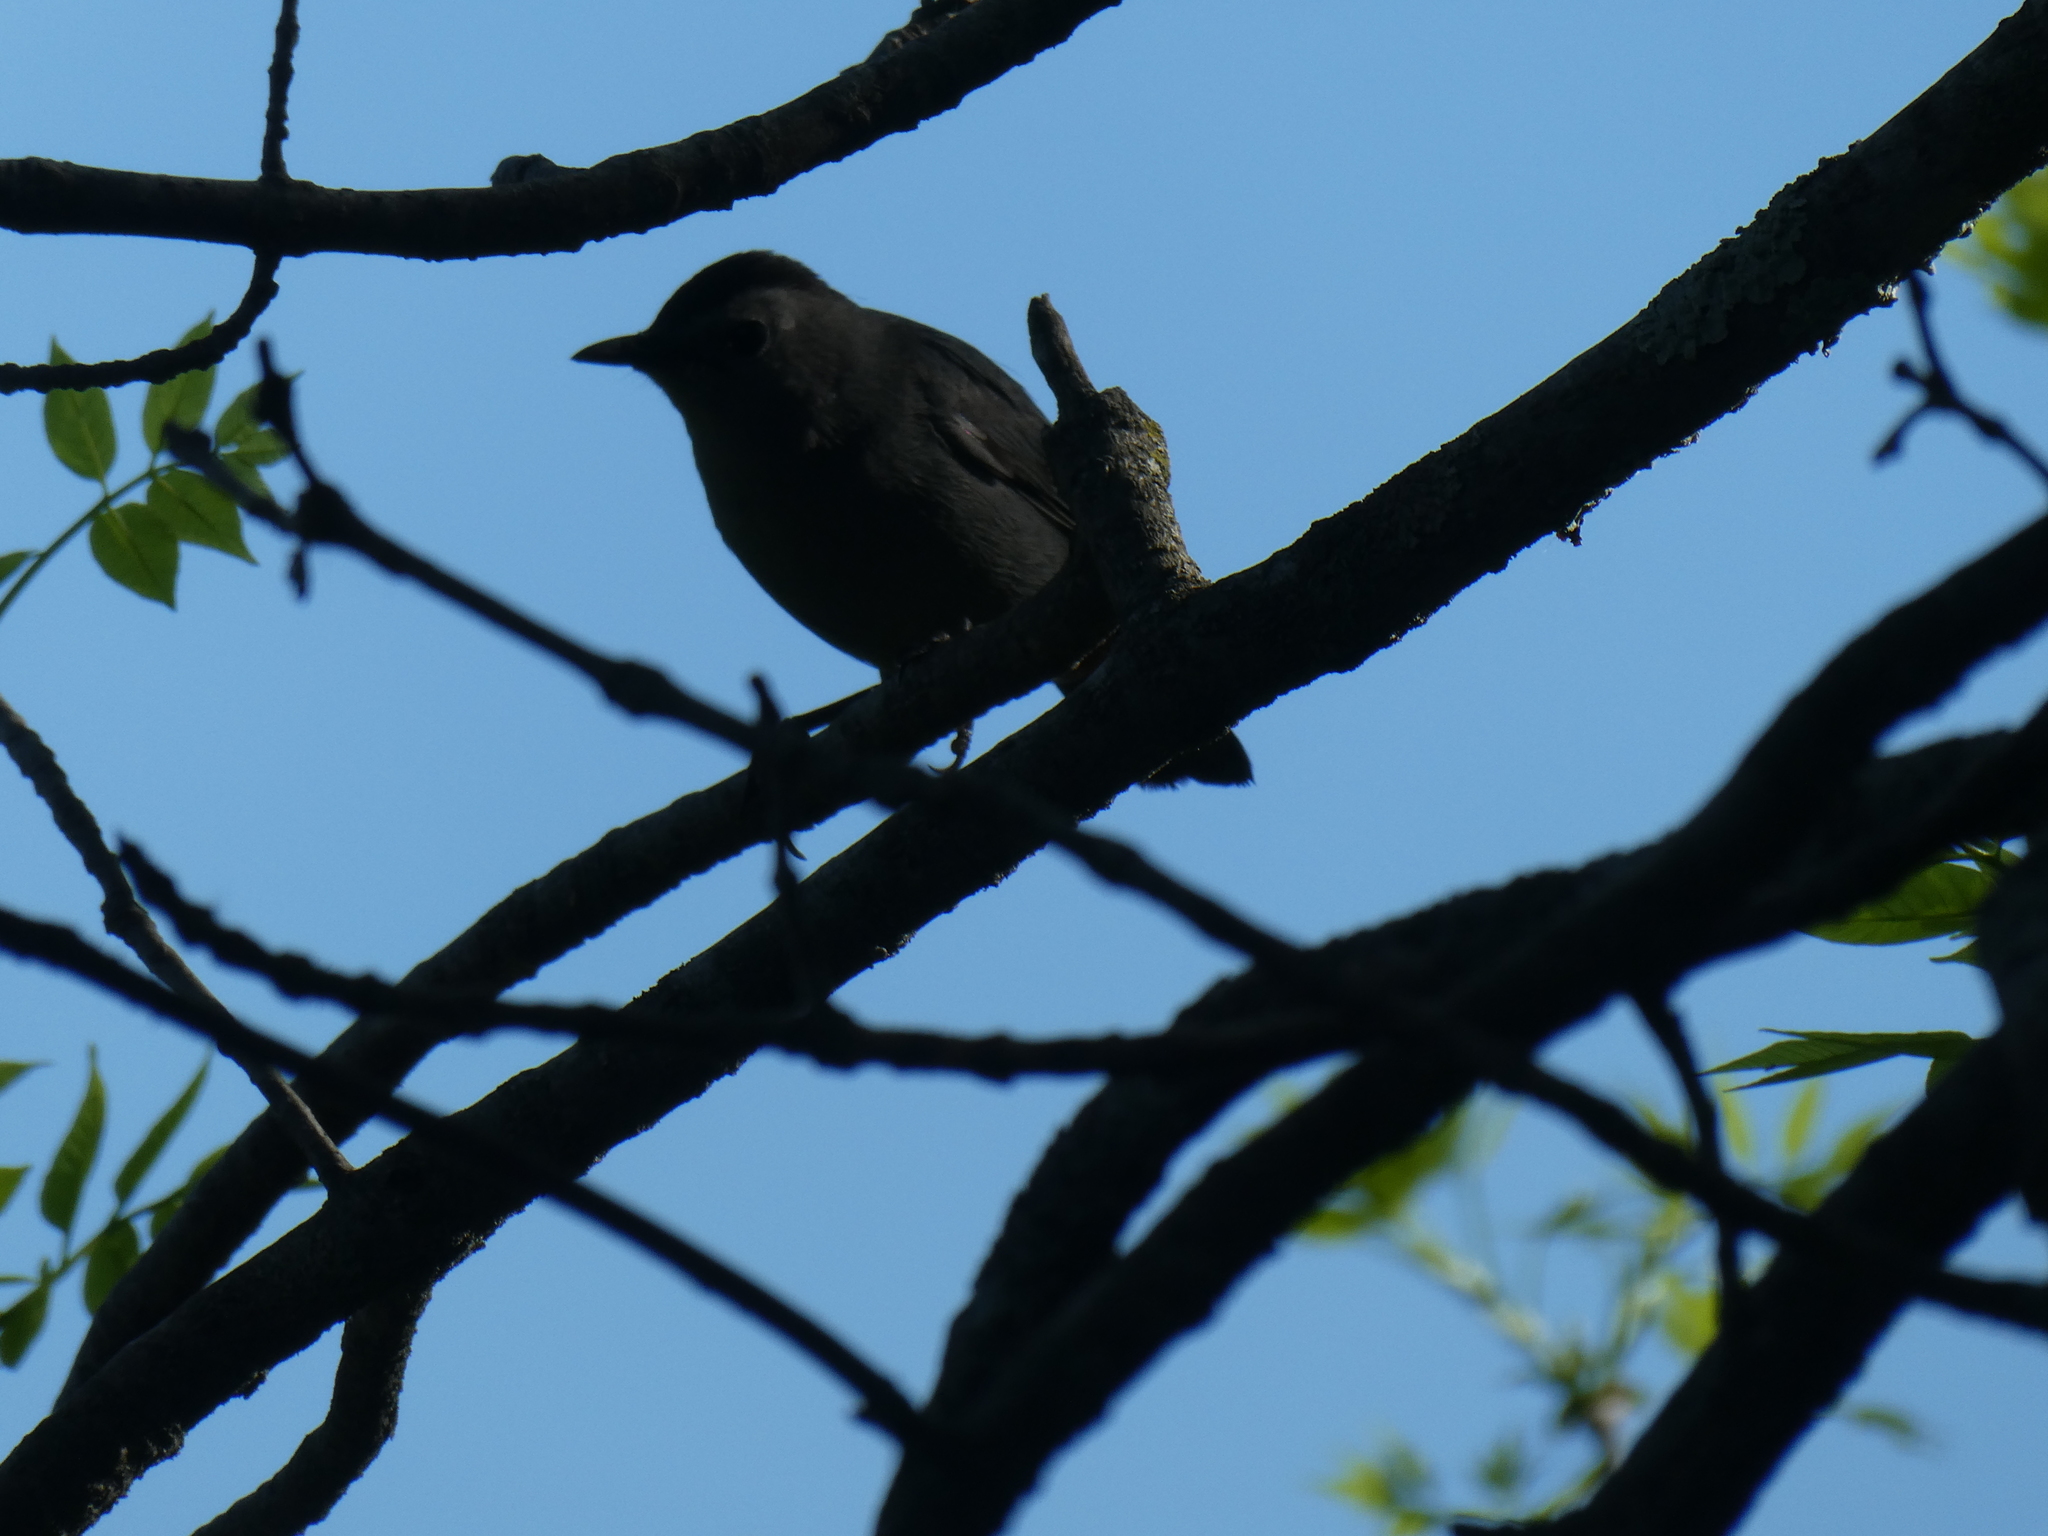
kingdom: Animalia
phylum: Chordata
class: Aves
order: Passeriformes
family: Mimidae
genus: Dumetella
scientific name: Dumetella carolinensis
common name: Gray catbird
